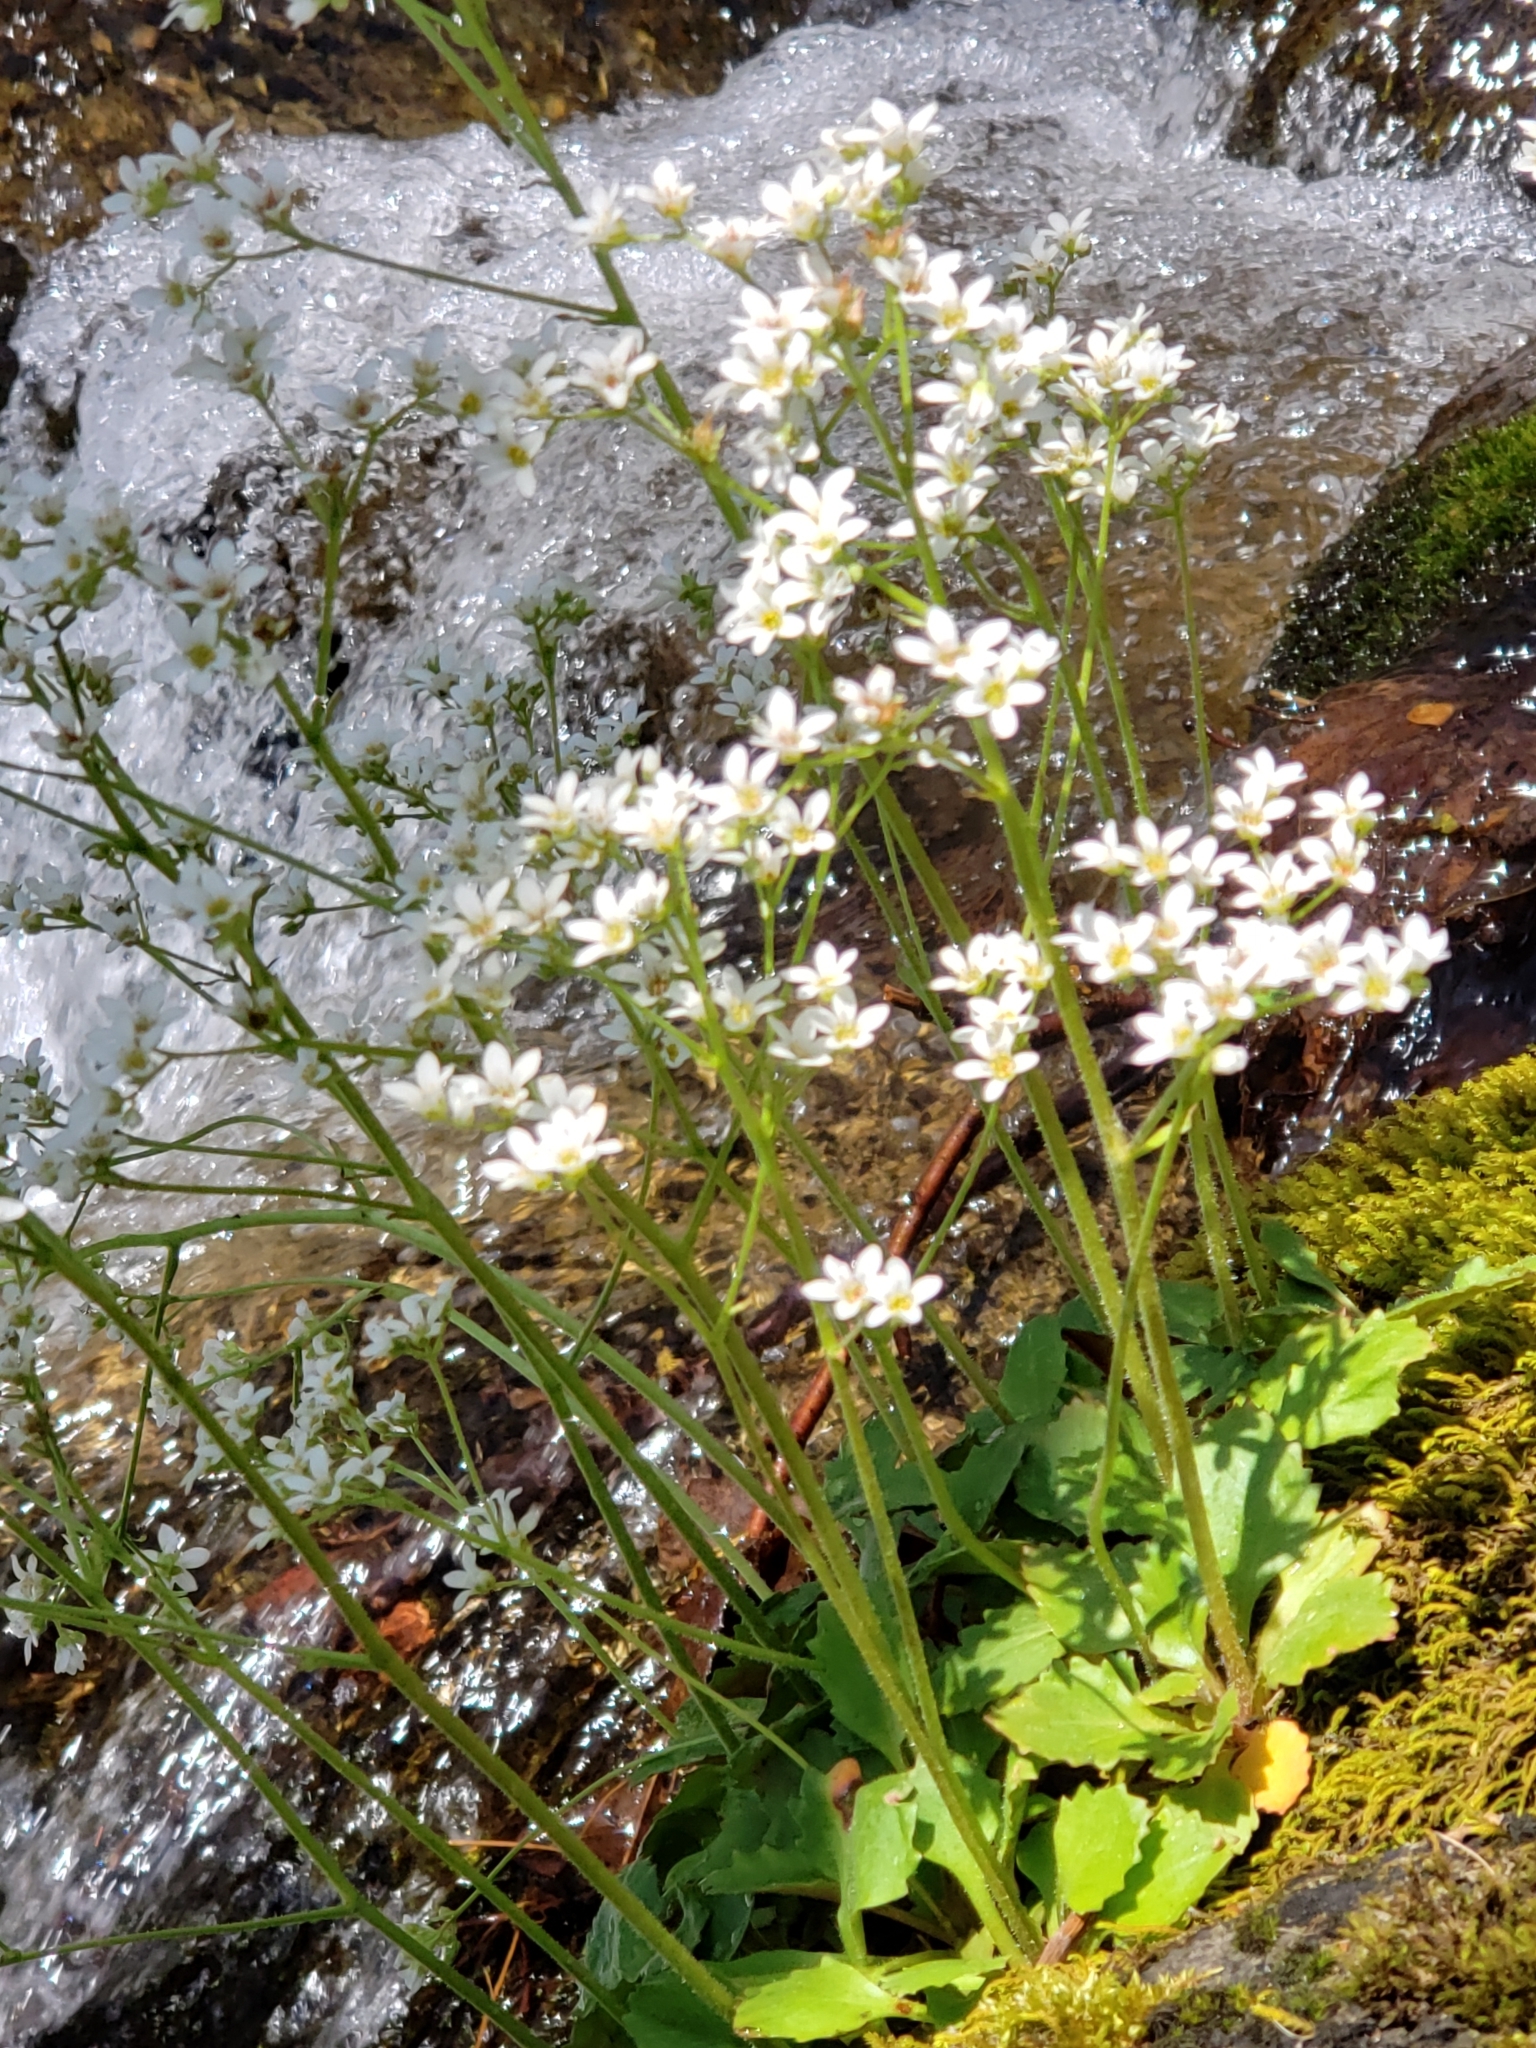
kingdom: Plantae
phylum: Tracheophyta
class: Magnoliopsida
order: Saxifragales
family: Saxifragaceae
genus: Micranthes
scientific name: Micranthes virginiensis
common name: Early saxifrage
